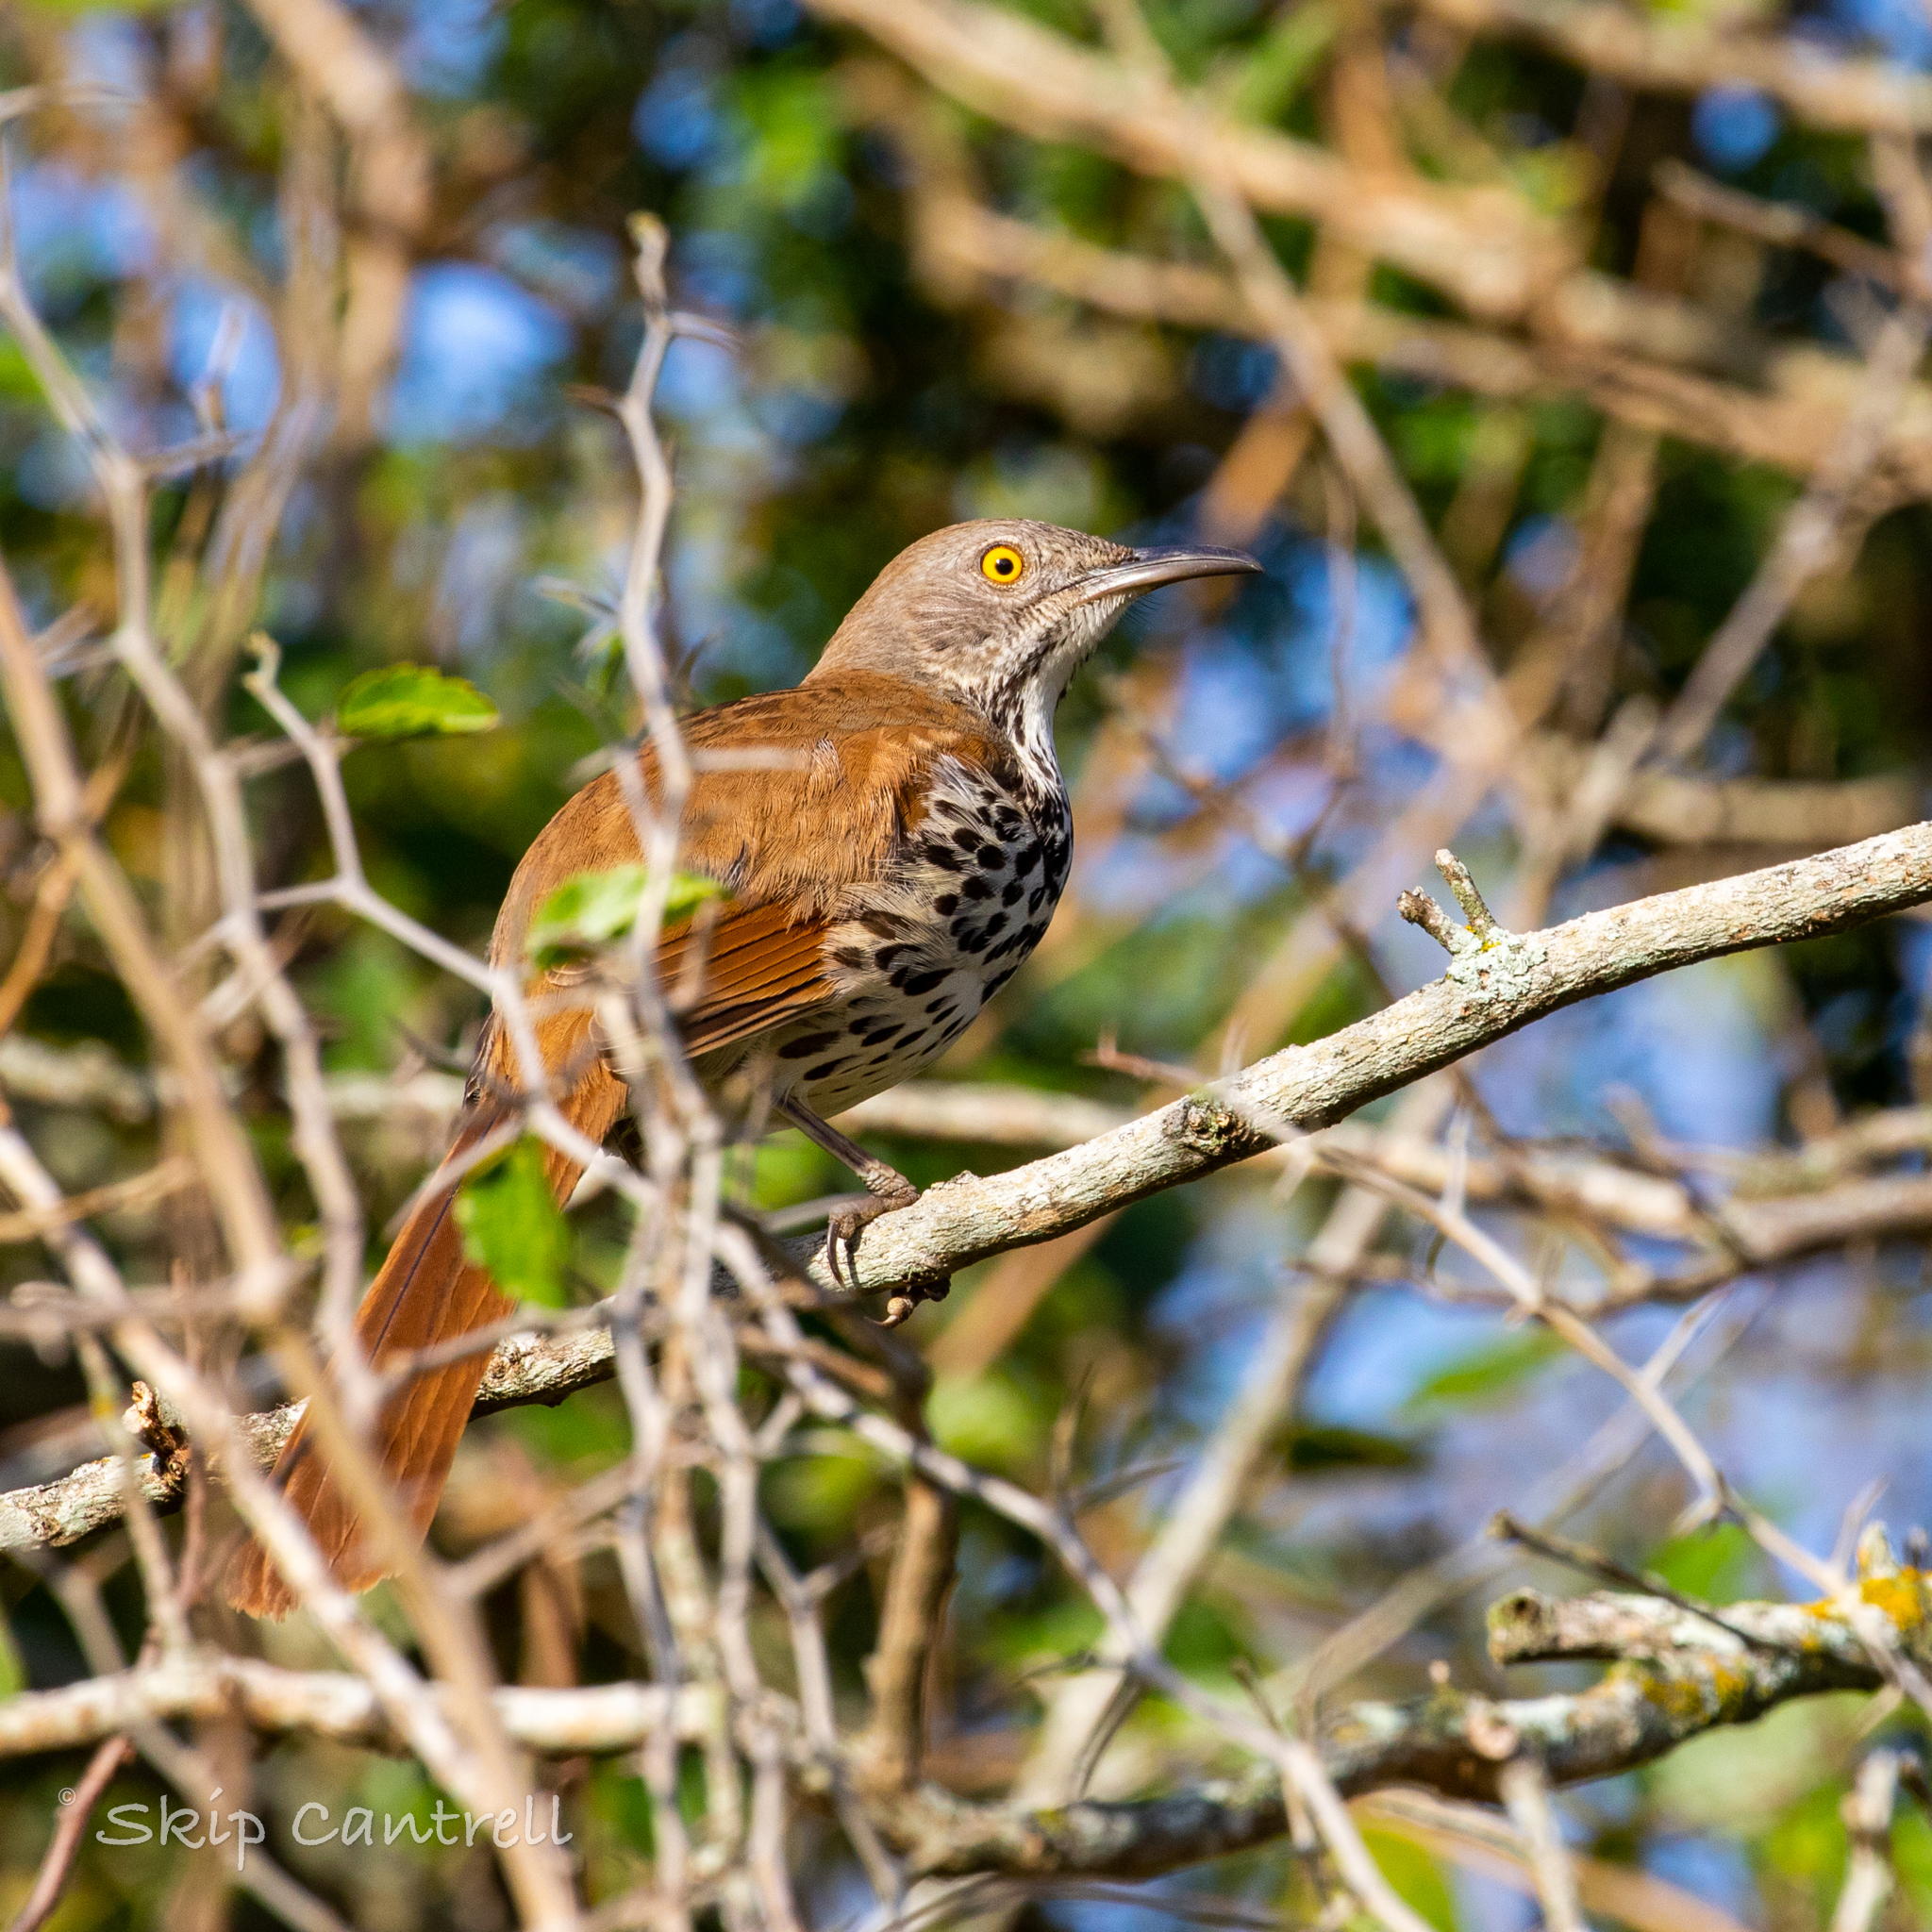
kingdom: Animalia
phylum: Chordata
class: Aves
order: Passeriformes
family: Mimidae
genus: Toxostoma
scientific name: Toxostoma longirostre
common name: Long-billed thrasher
